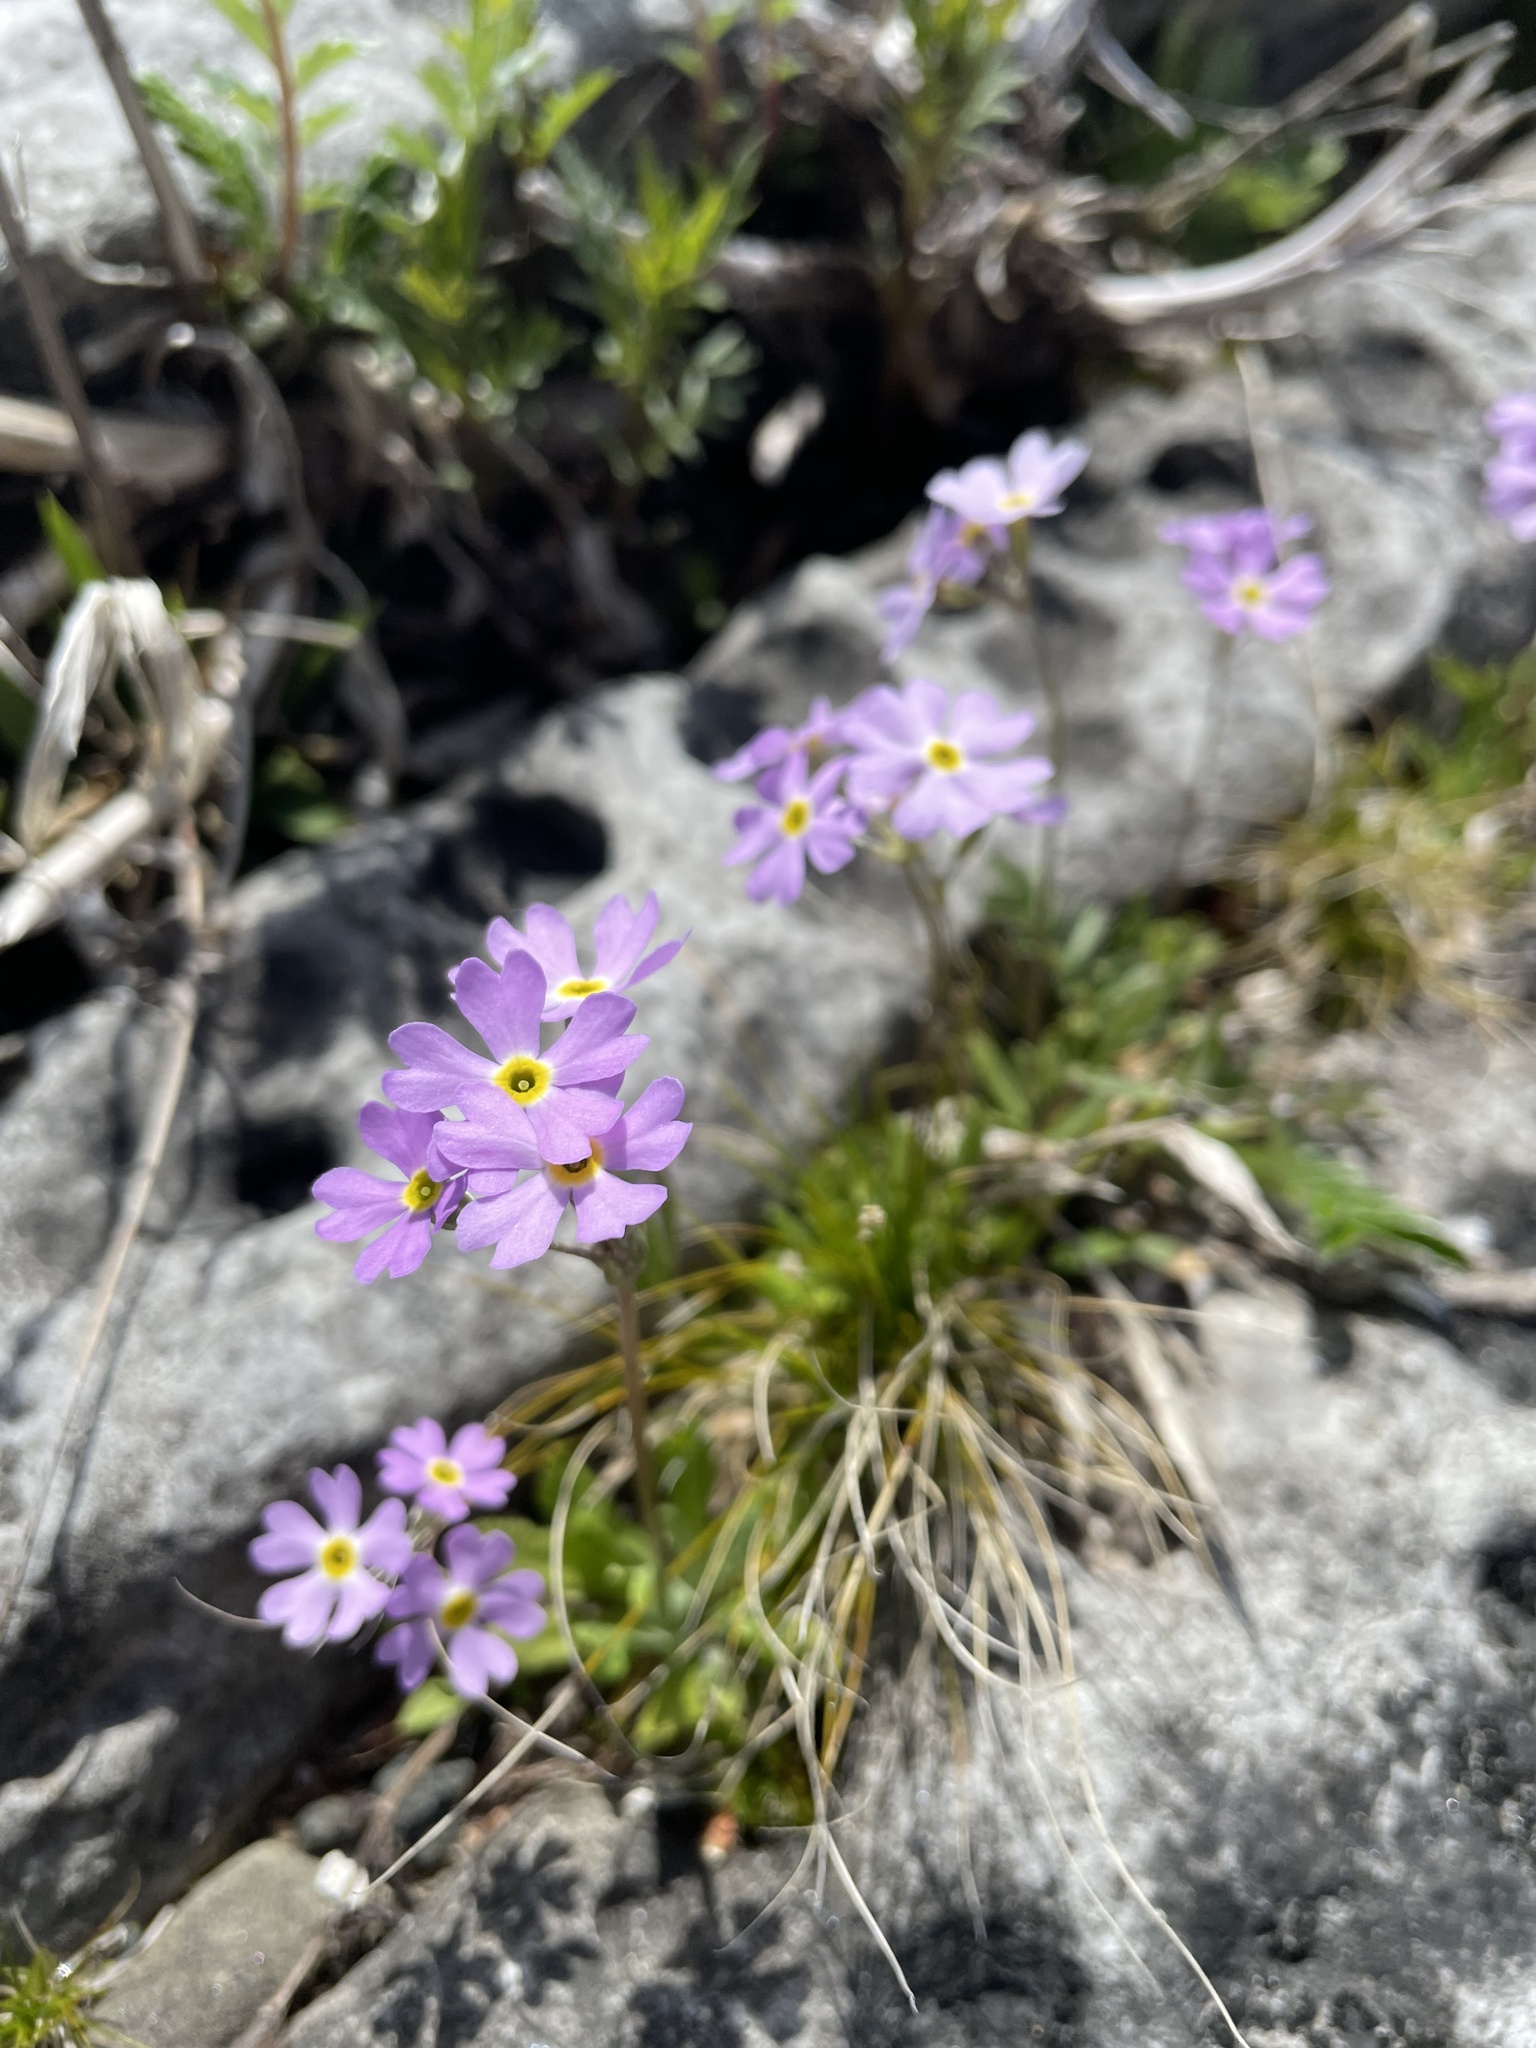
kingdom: Plantae
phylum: Tracheophyta
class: Magnoliopsida
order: Ericales
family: Primulaceae
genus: Primula
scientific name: Primula mistassinica
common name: Bird's-eye primrose
